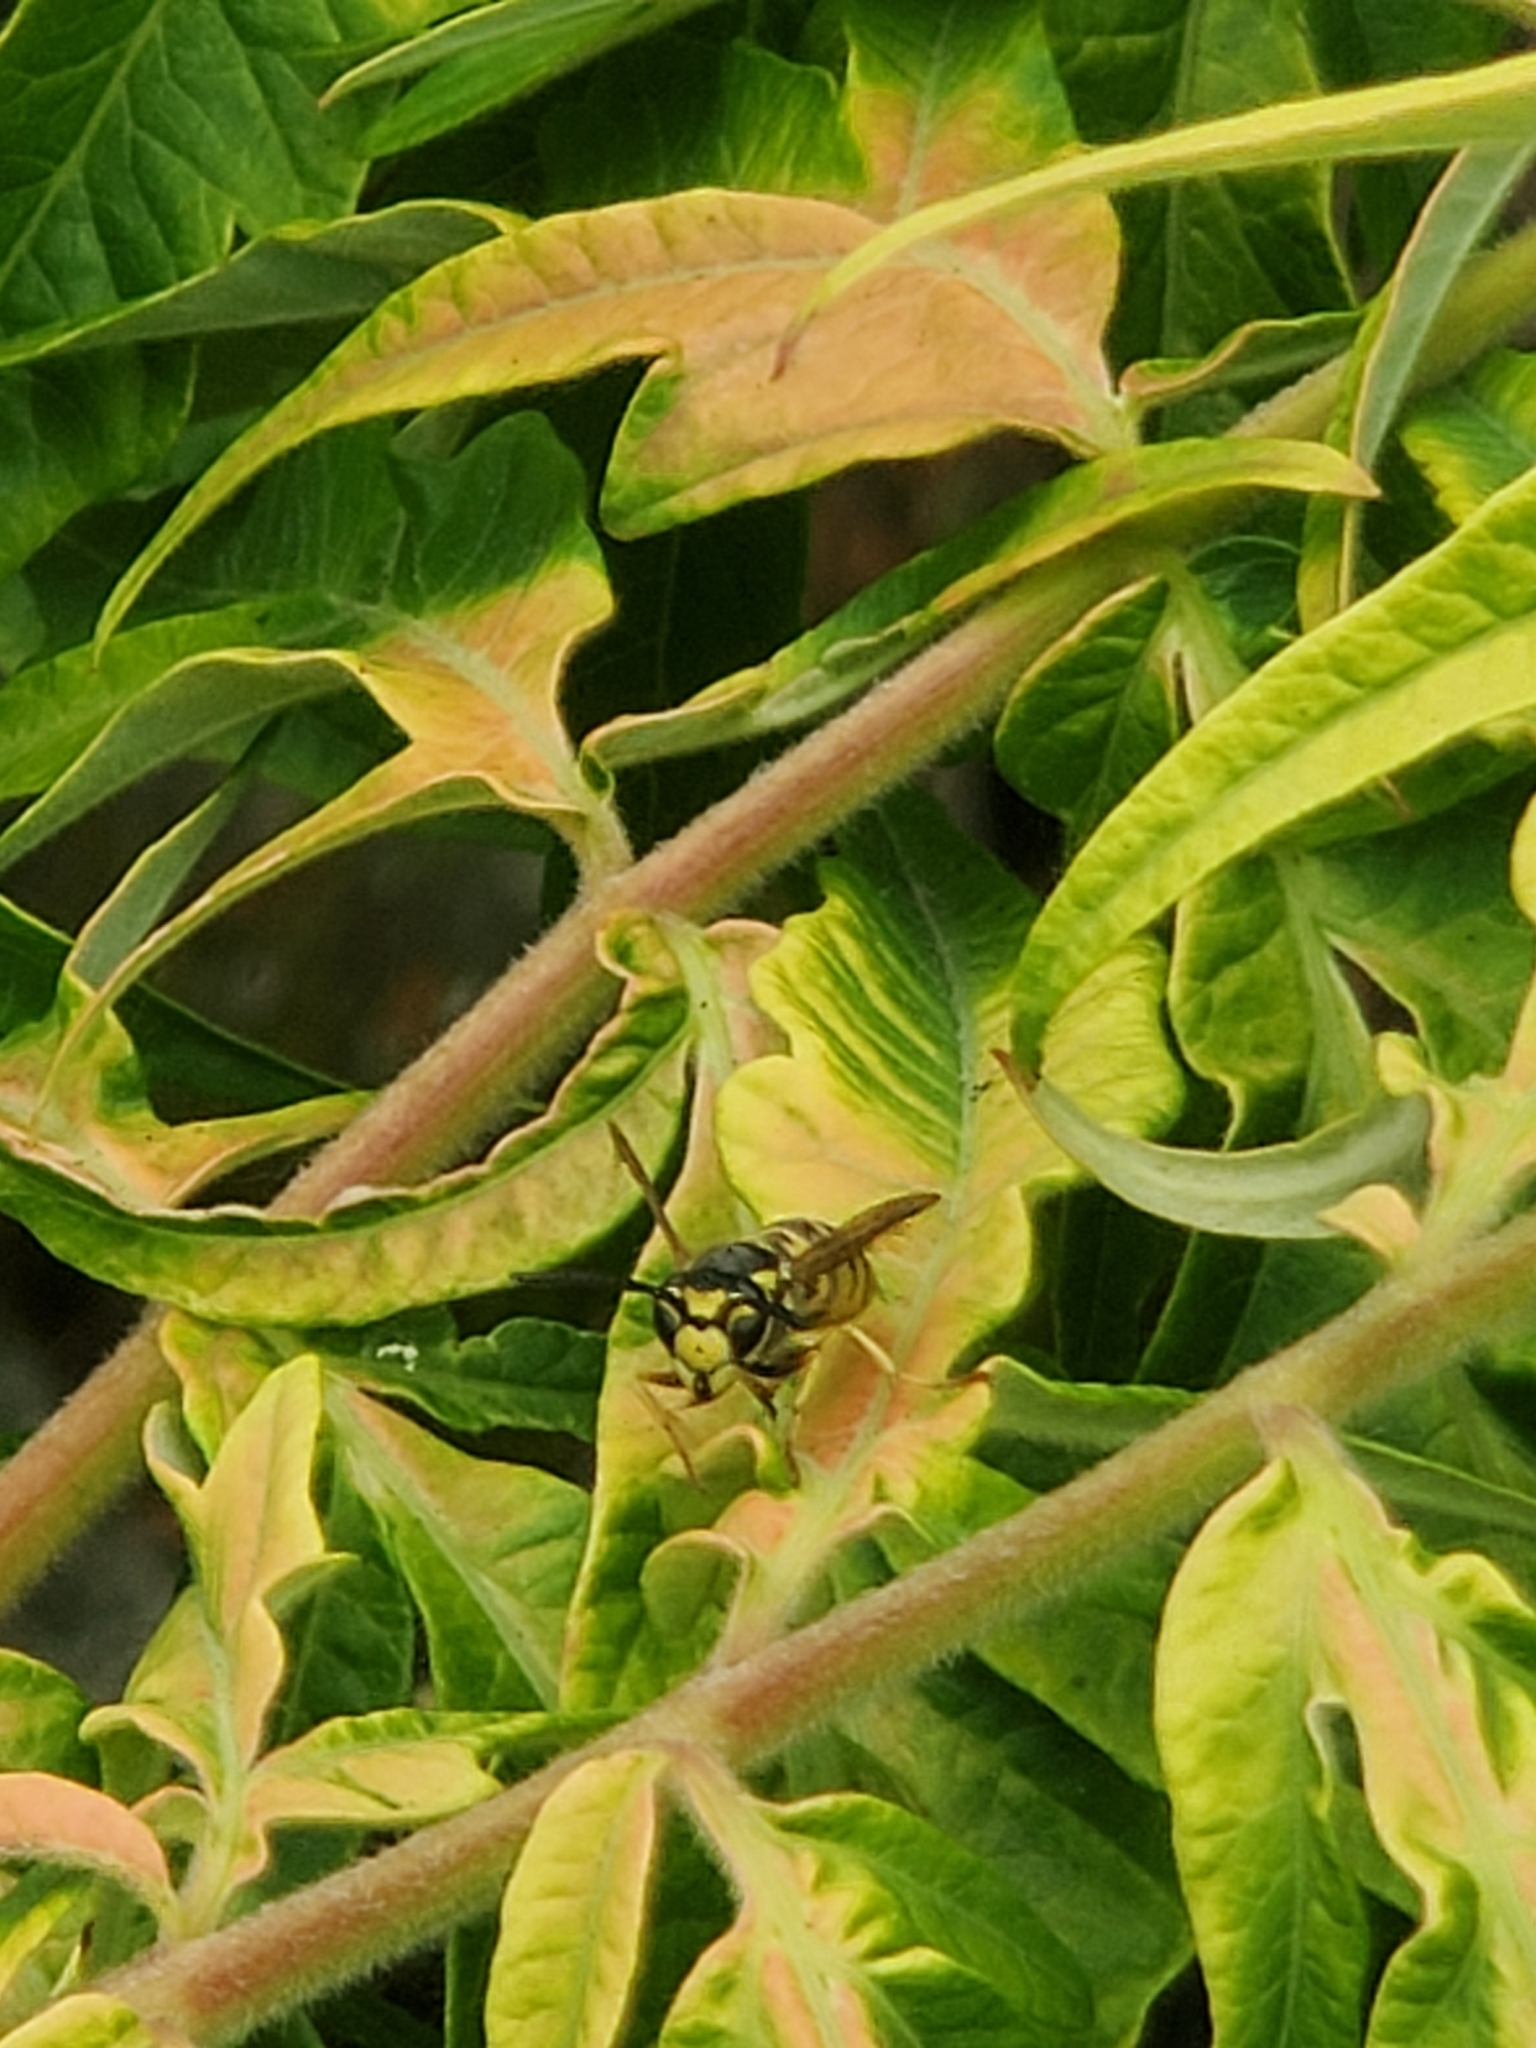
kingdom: Animalia
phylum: Arthropoda
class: Insecta
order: Hymenoptera
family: Vespidae
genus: Vespula
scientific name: Vespula germanica
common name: German wasp
